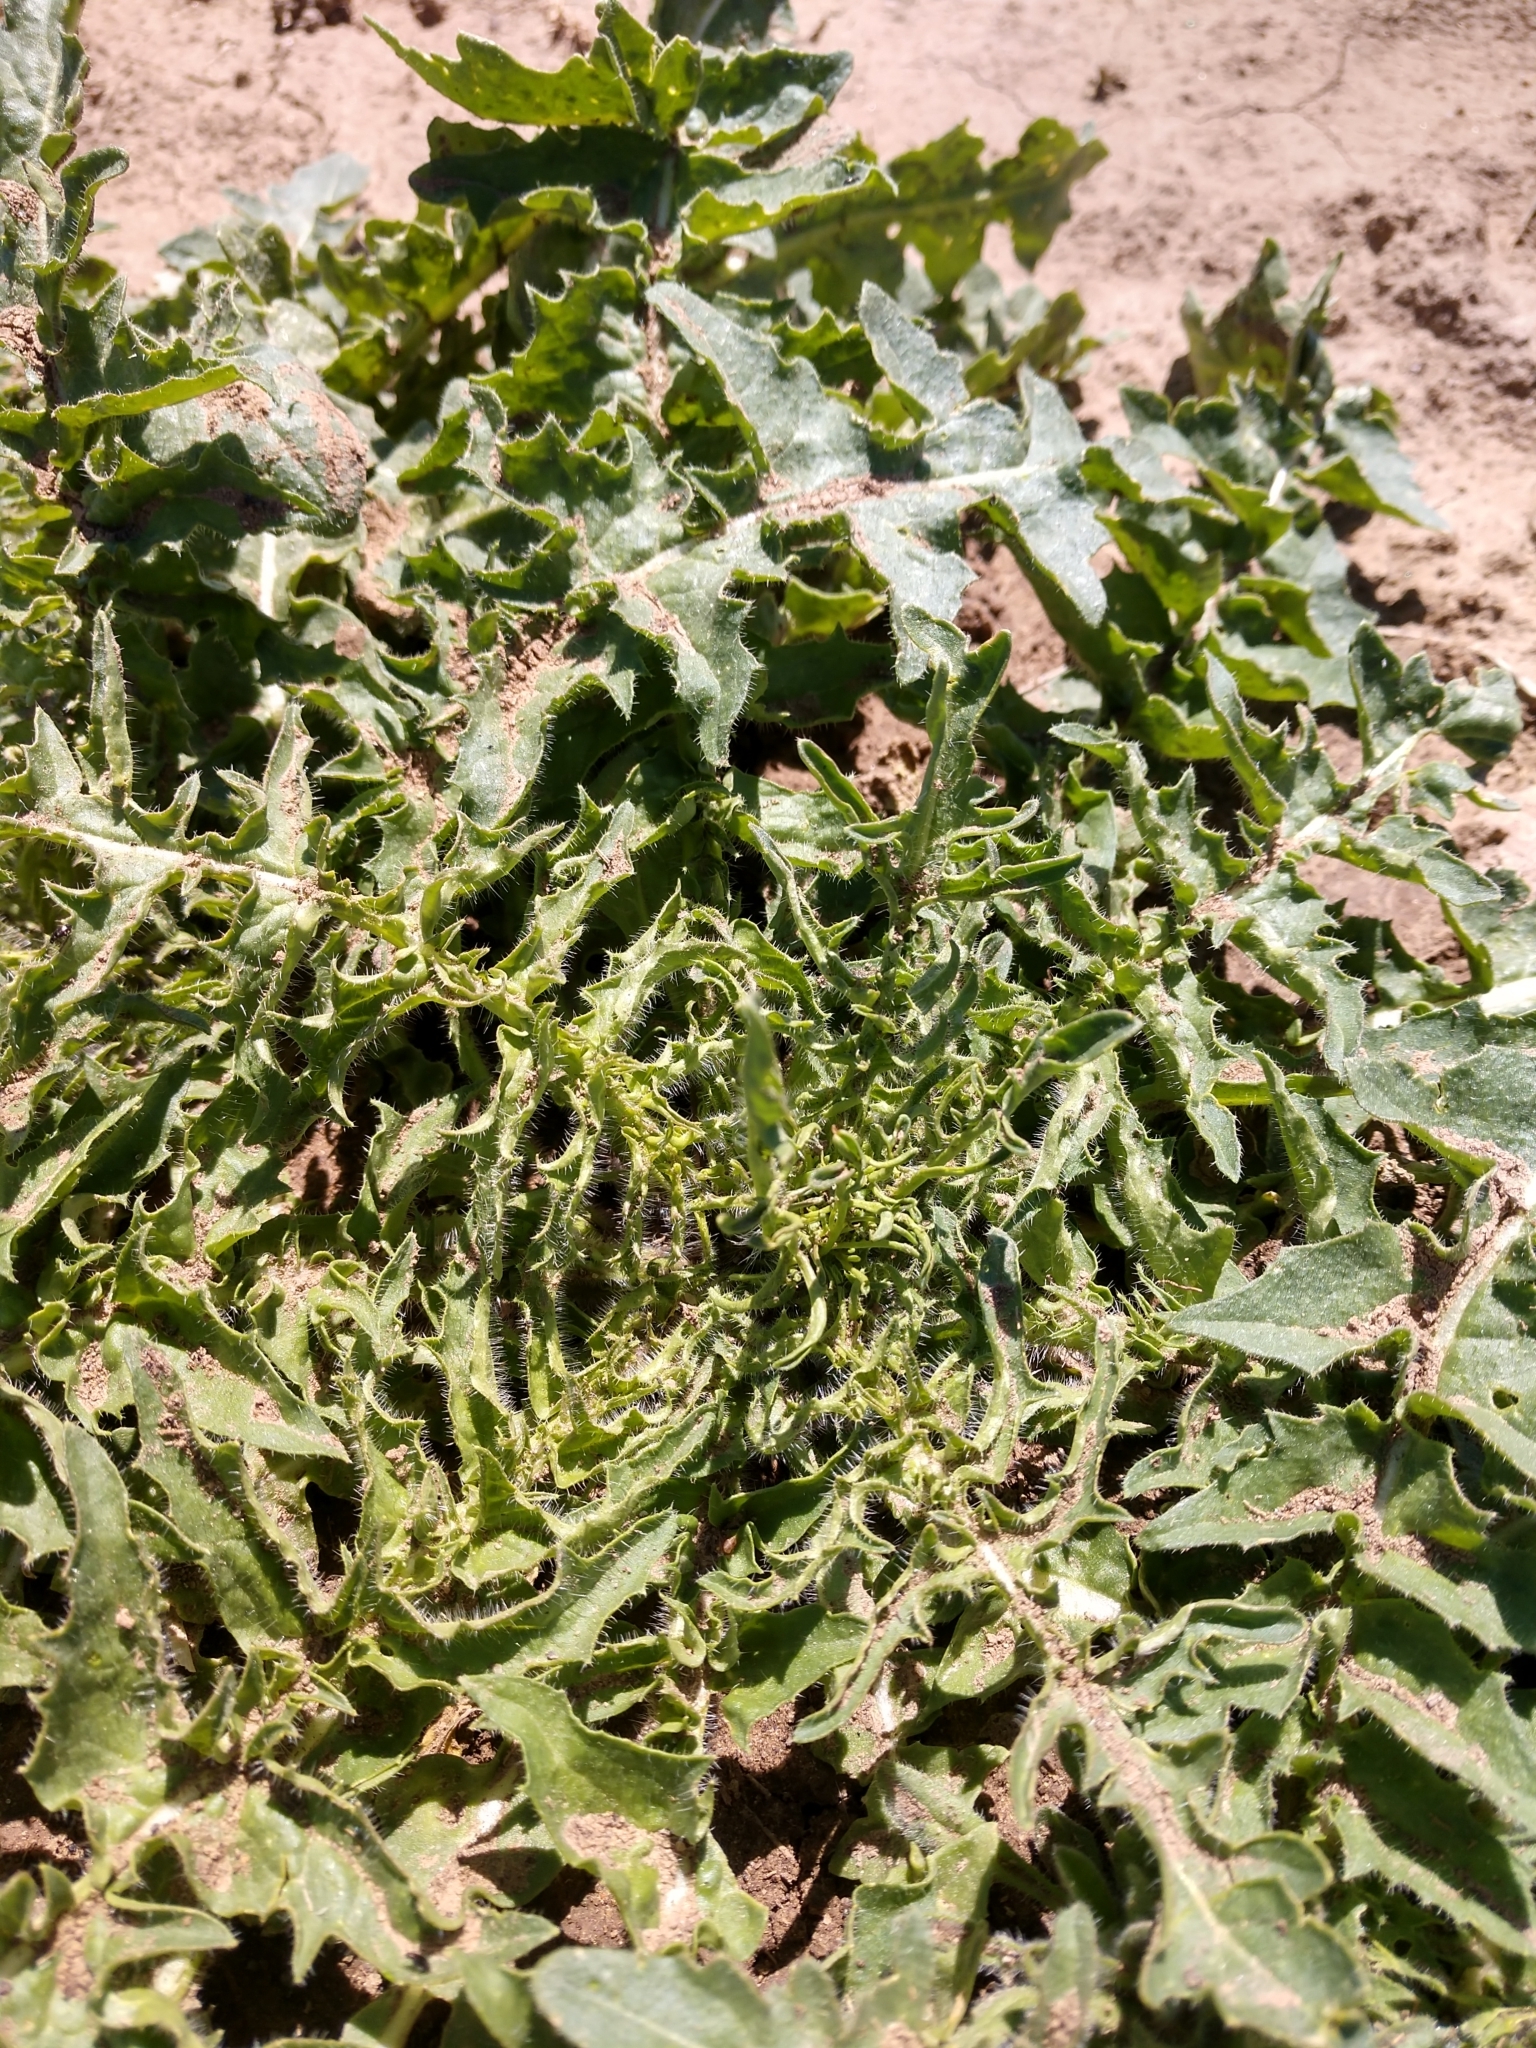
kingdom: Plantae
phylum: Tracheophyta
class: Magnoliopsida
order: Brassicales
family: Brassicaceae
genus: Sisymbrium
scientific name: Sisymbrium altissimum
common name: Tall rocket
